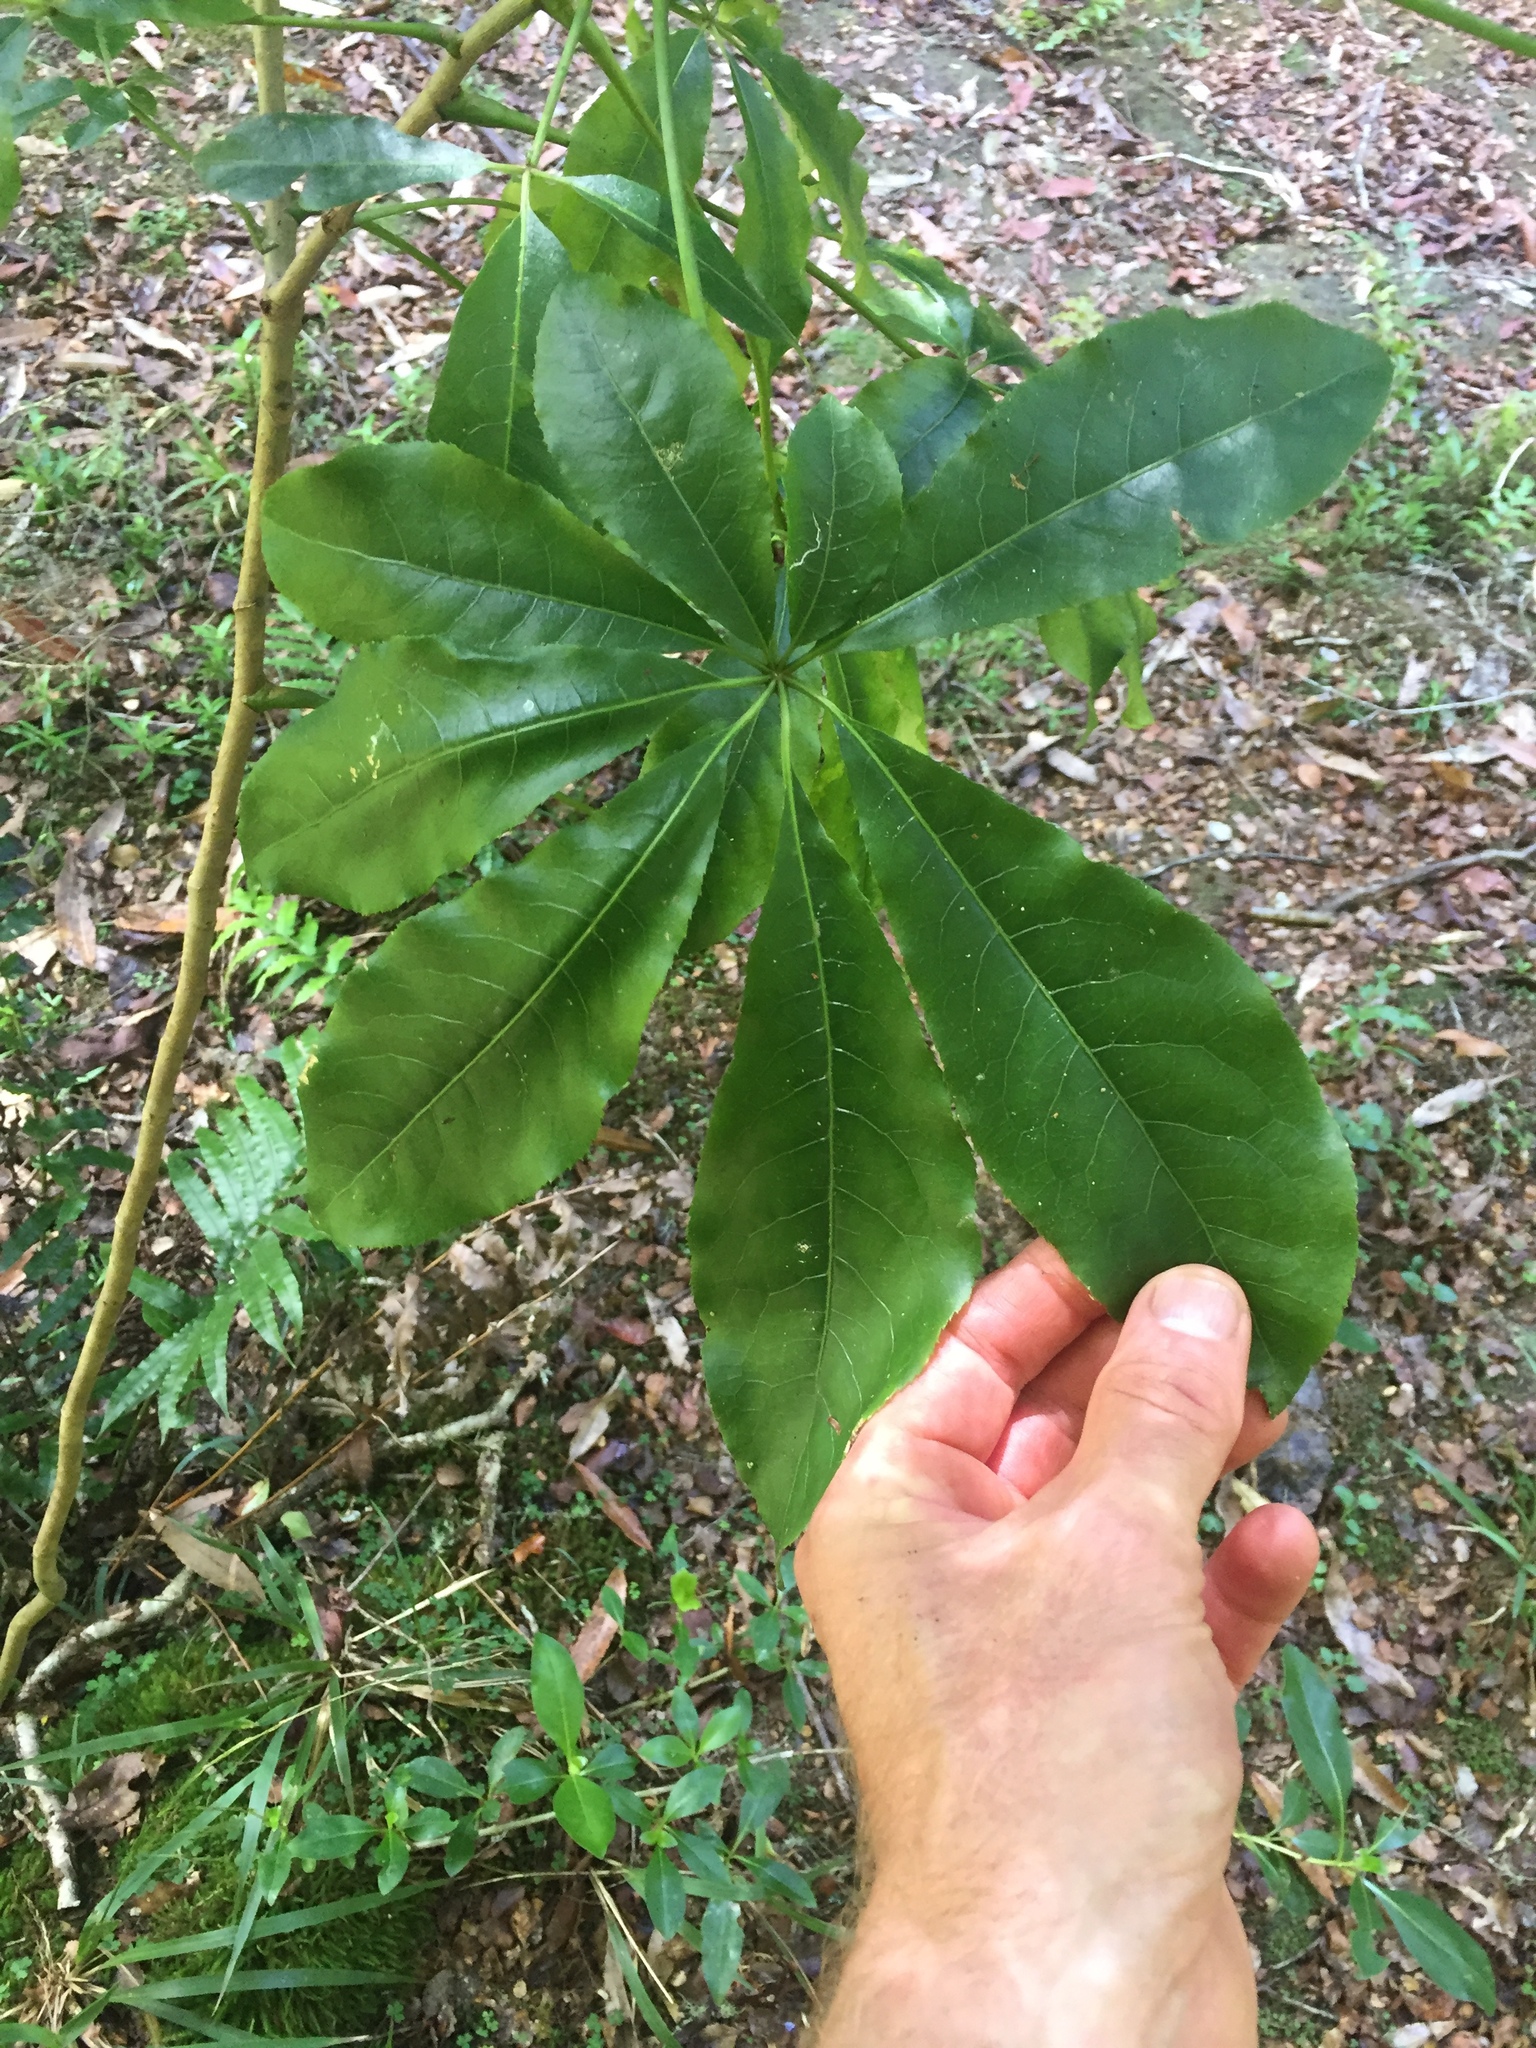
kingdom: Plantae
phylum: Tracheophyta
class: Magnoliopsida
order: Apiales
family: Araliaceae
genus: Schefflera
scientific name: Schefflera digitata
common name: Pate
